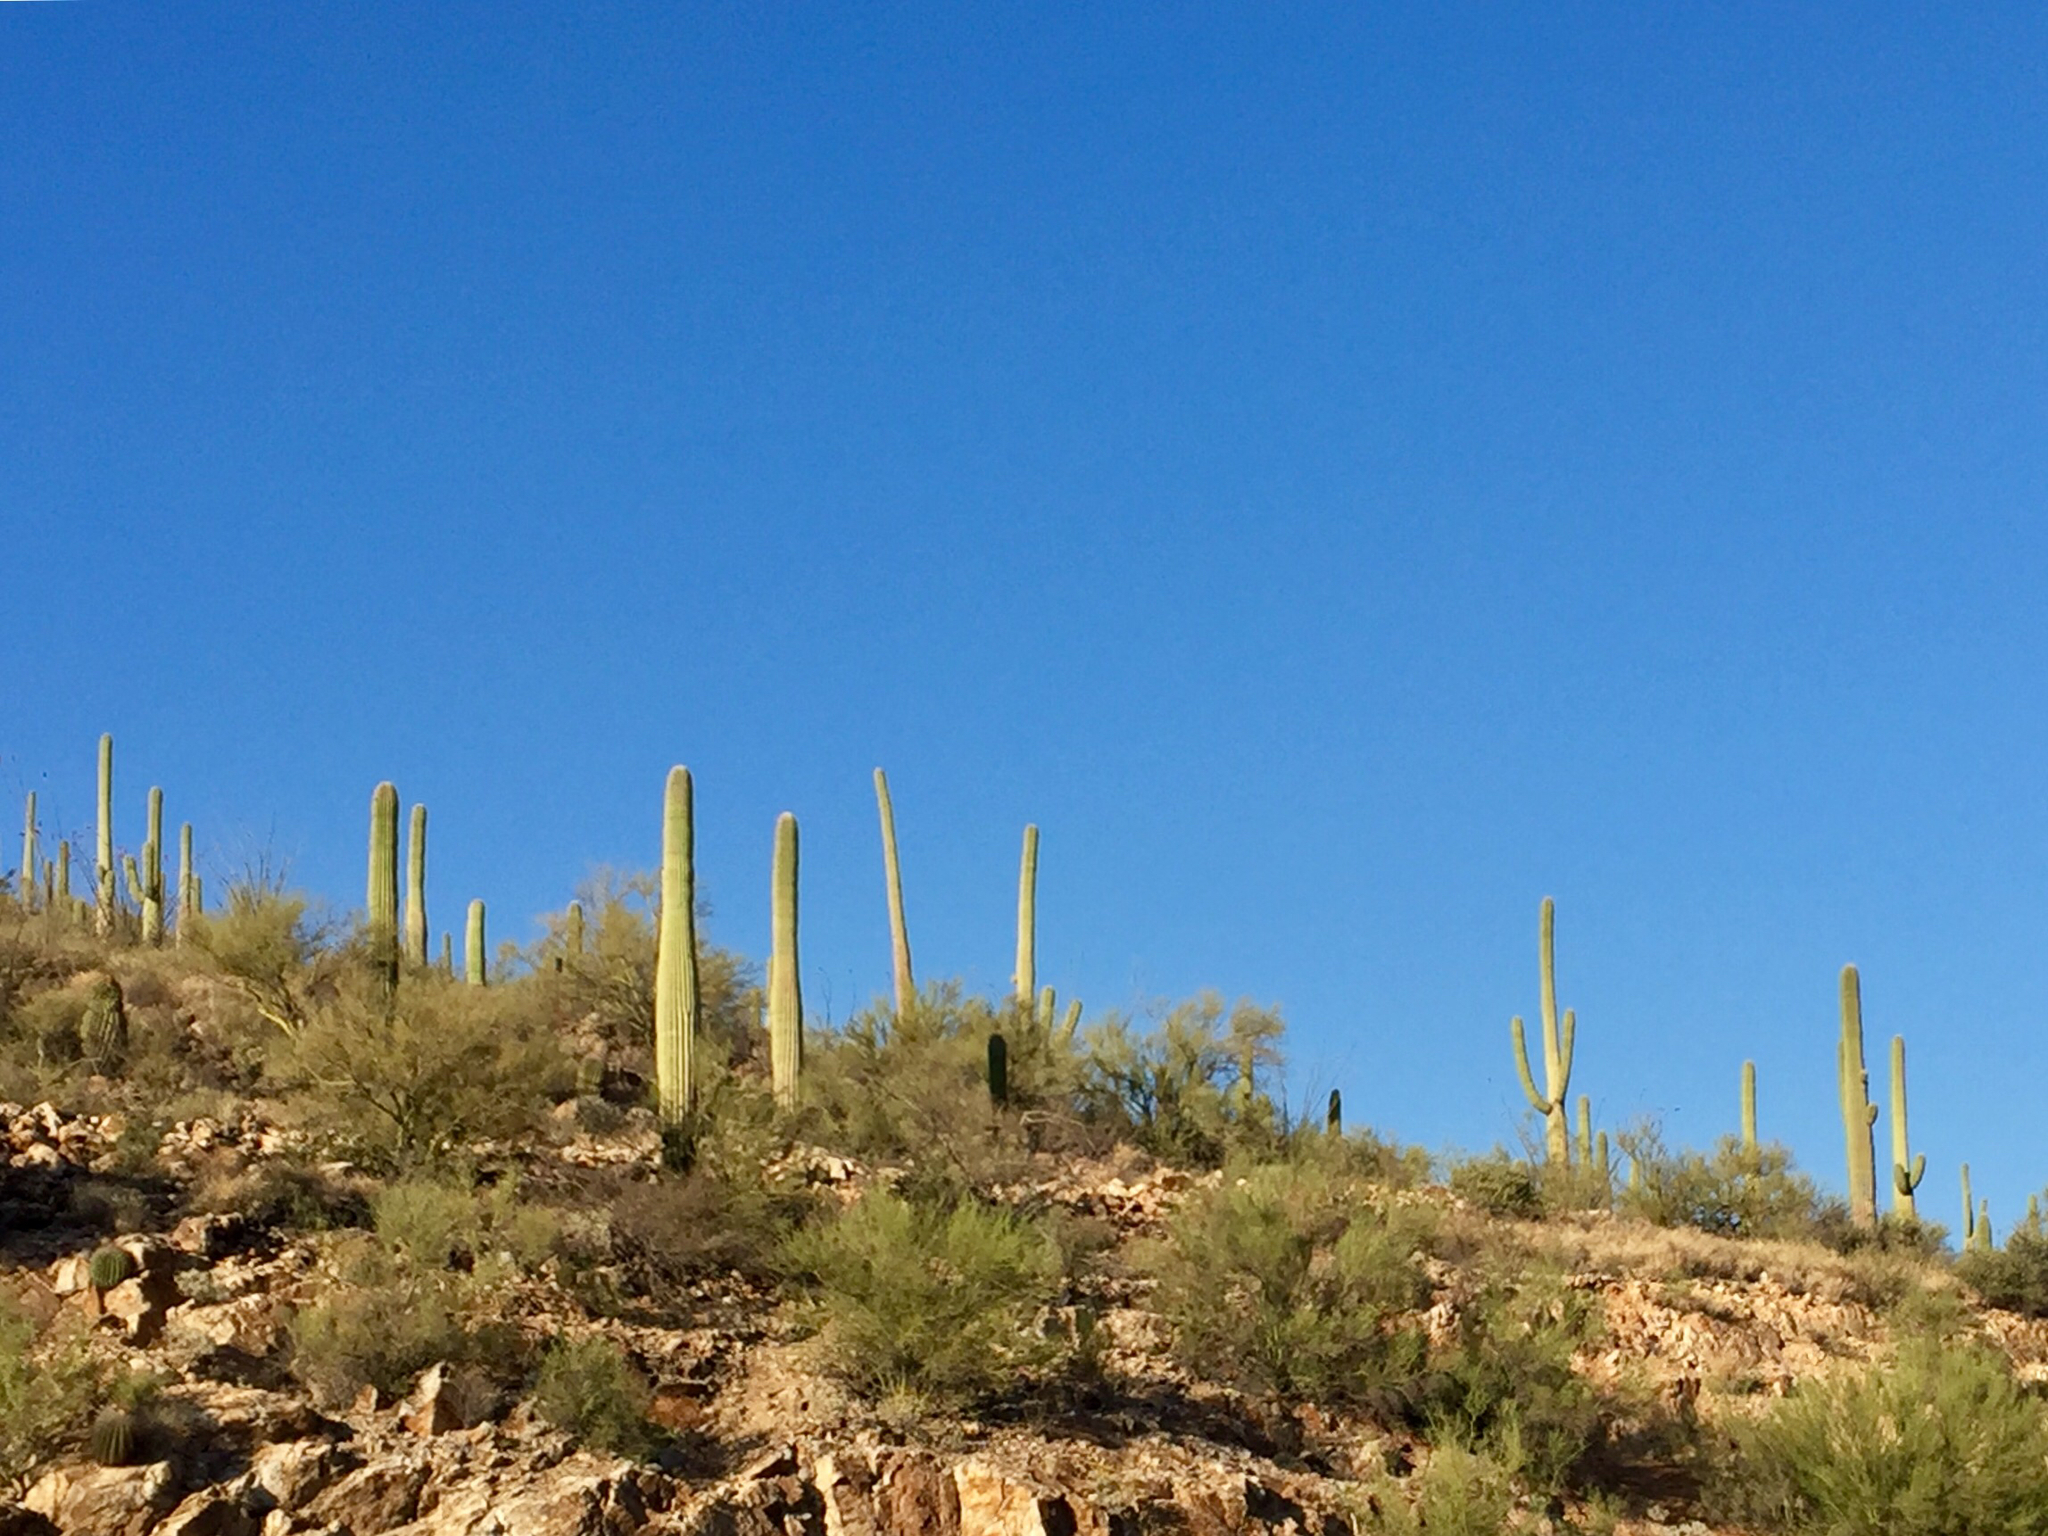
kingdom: Plantae
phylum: Tracheophyta
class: Magnoliopsida
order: Caryophyllales
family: Cactaceae
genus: Carnegiea
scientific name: Carnegiea gigantea
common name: Saguaro
